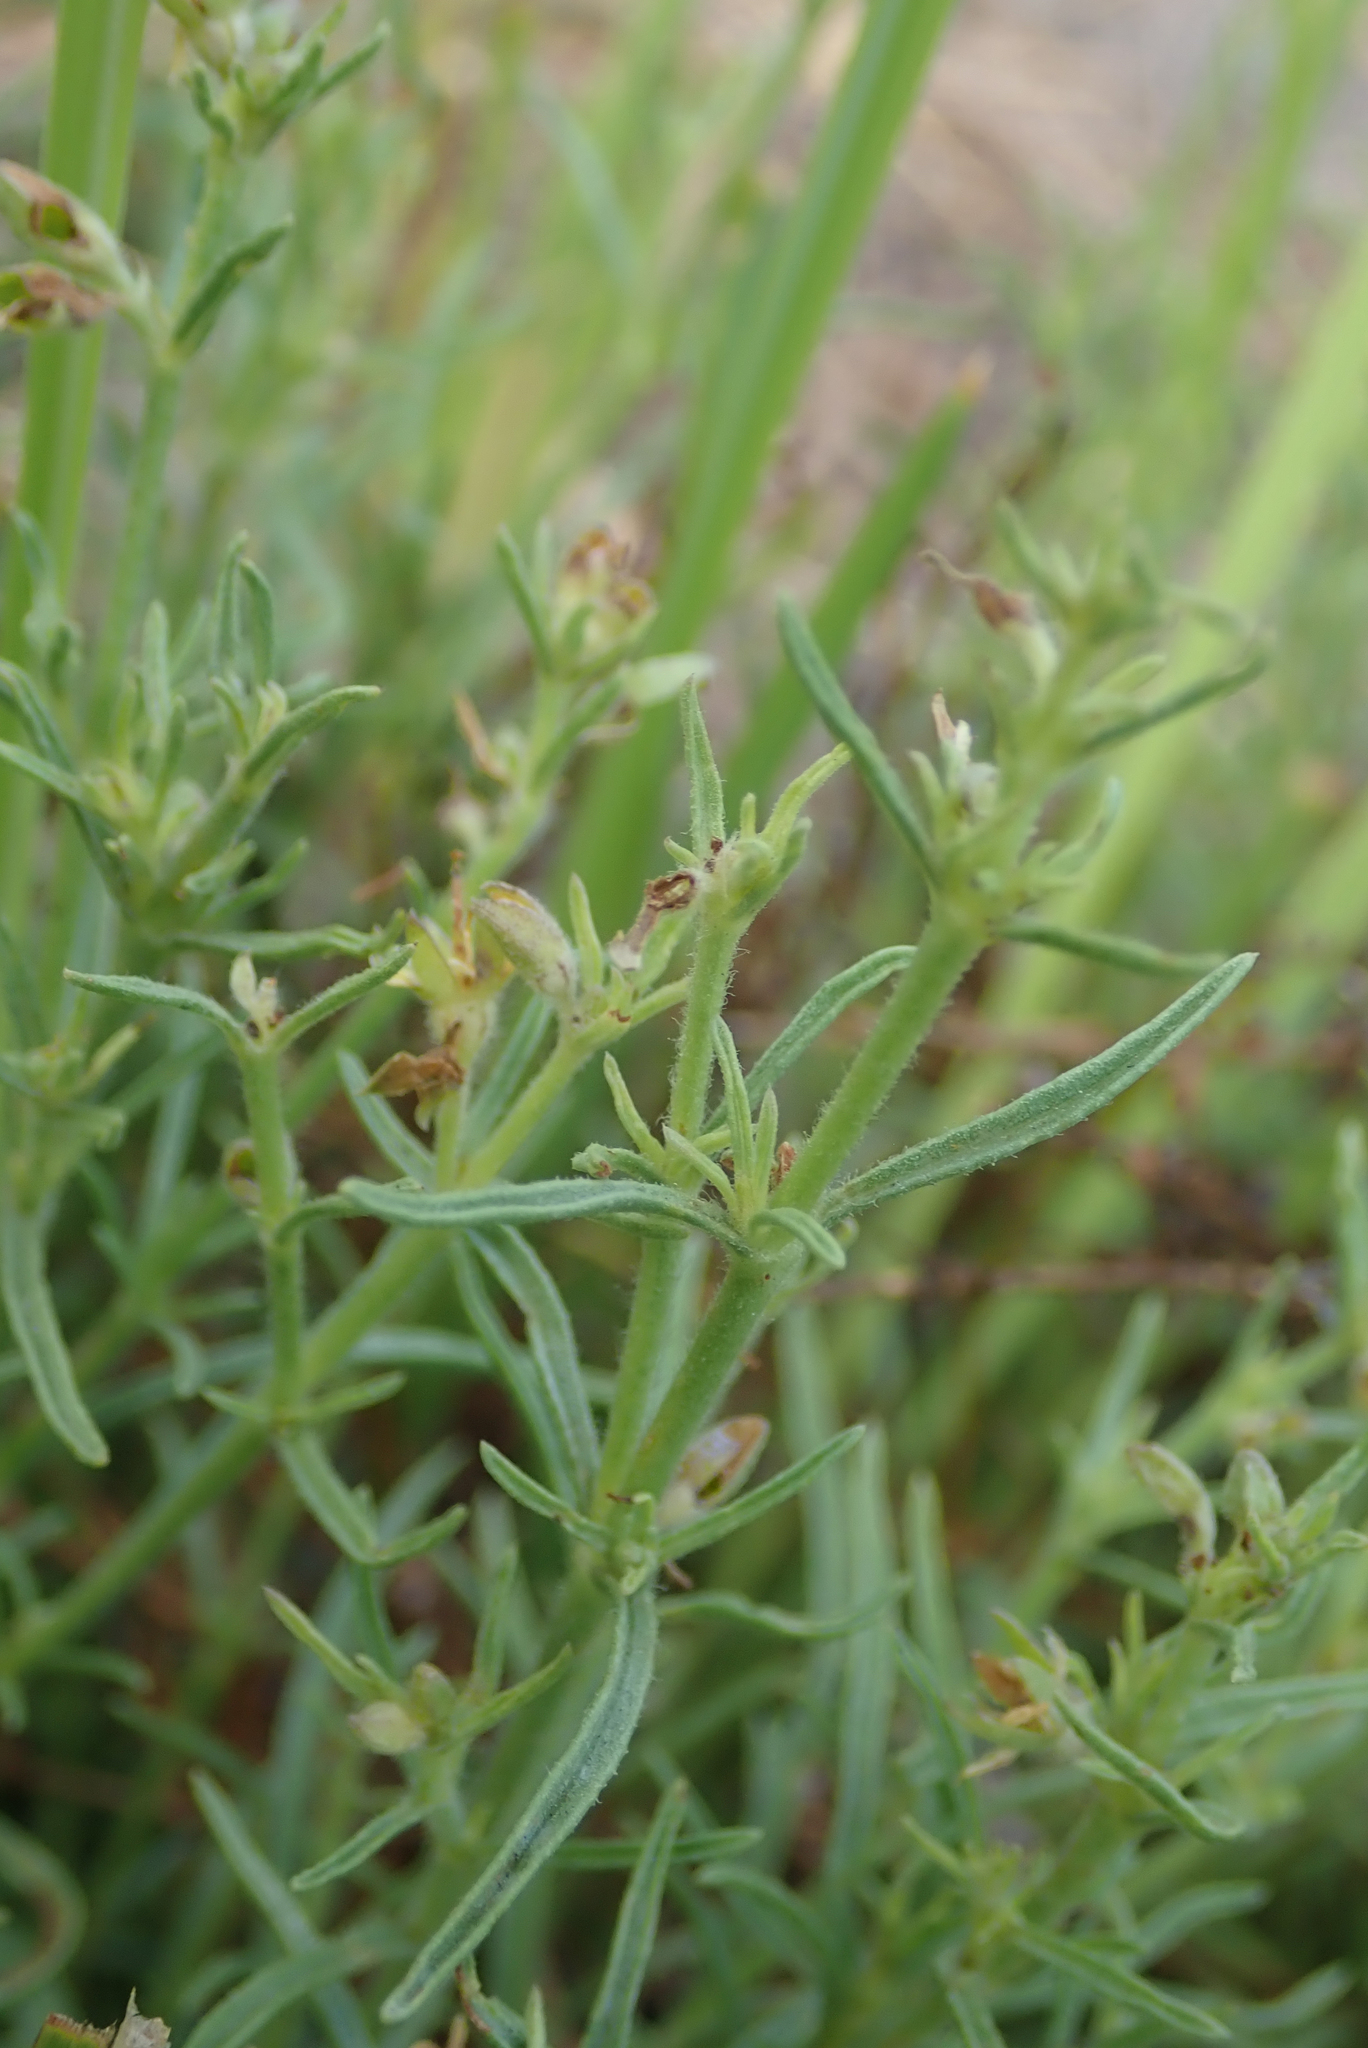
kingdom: Plantae
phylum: Tracheophyta
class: Magnoliopsida
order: Vahliales
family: Vahliaceae
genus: Vahlia
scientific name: Vahlia capensis
